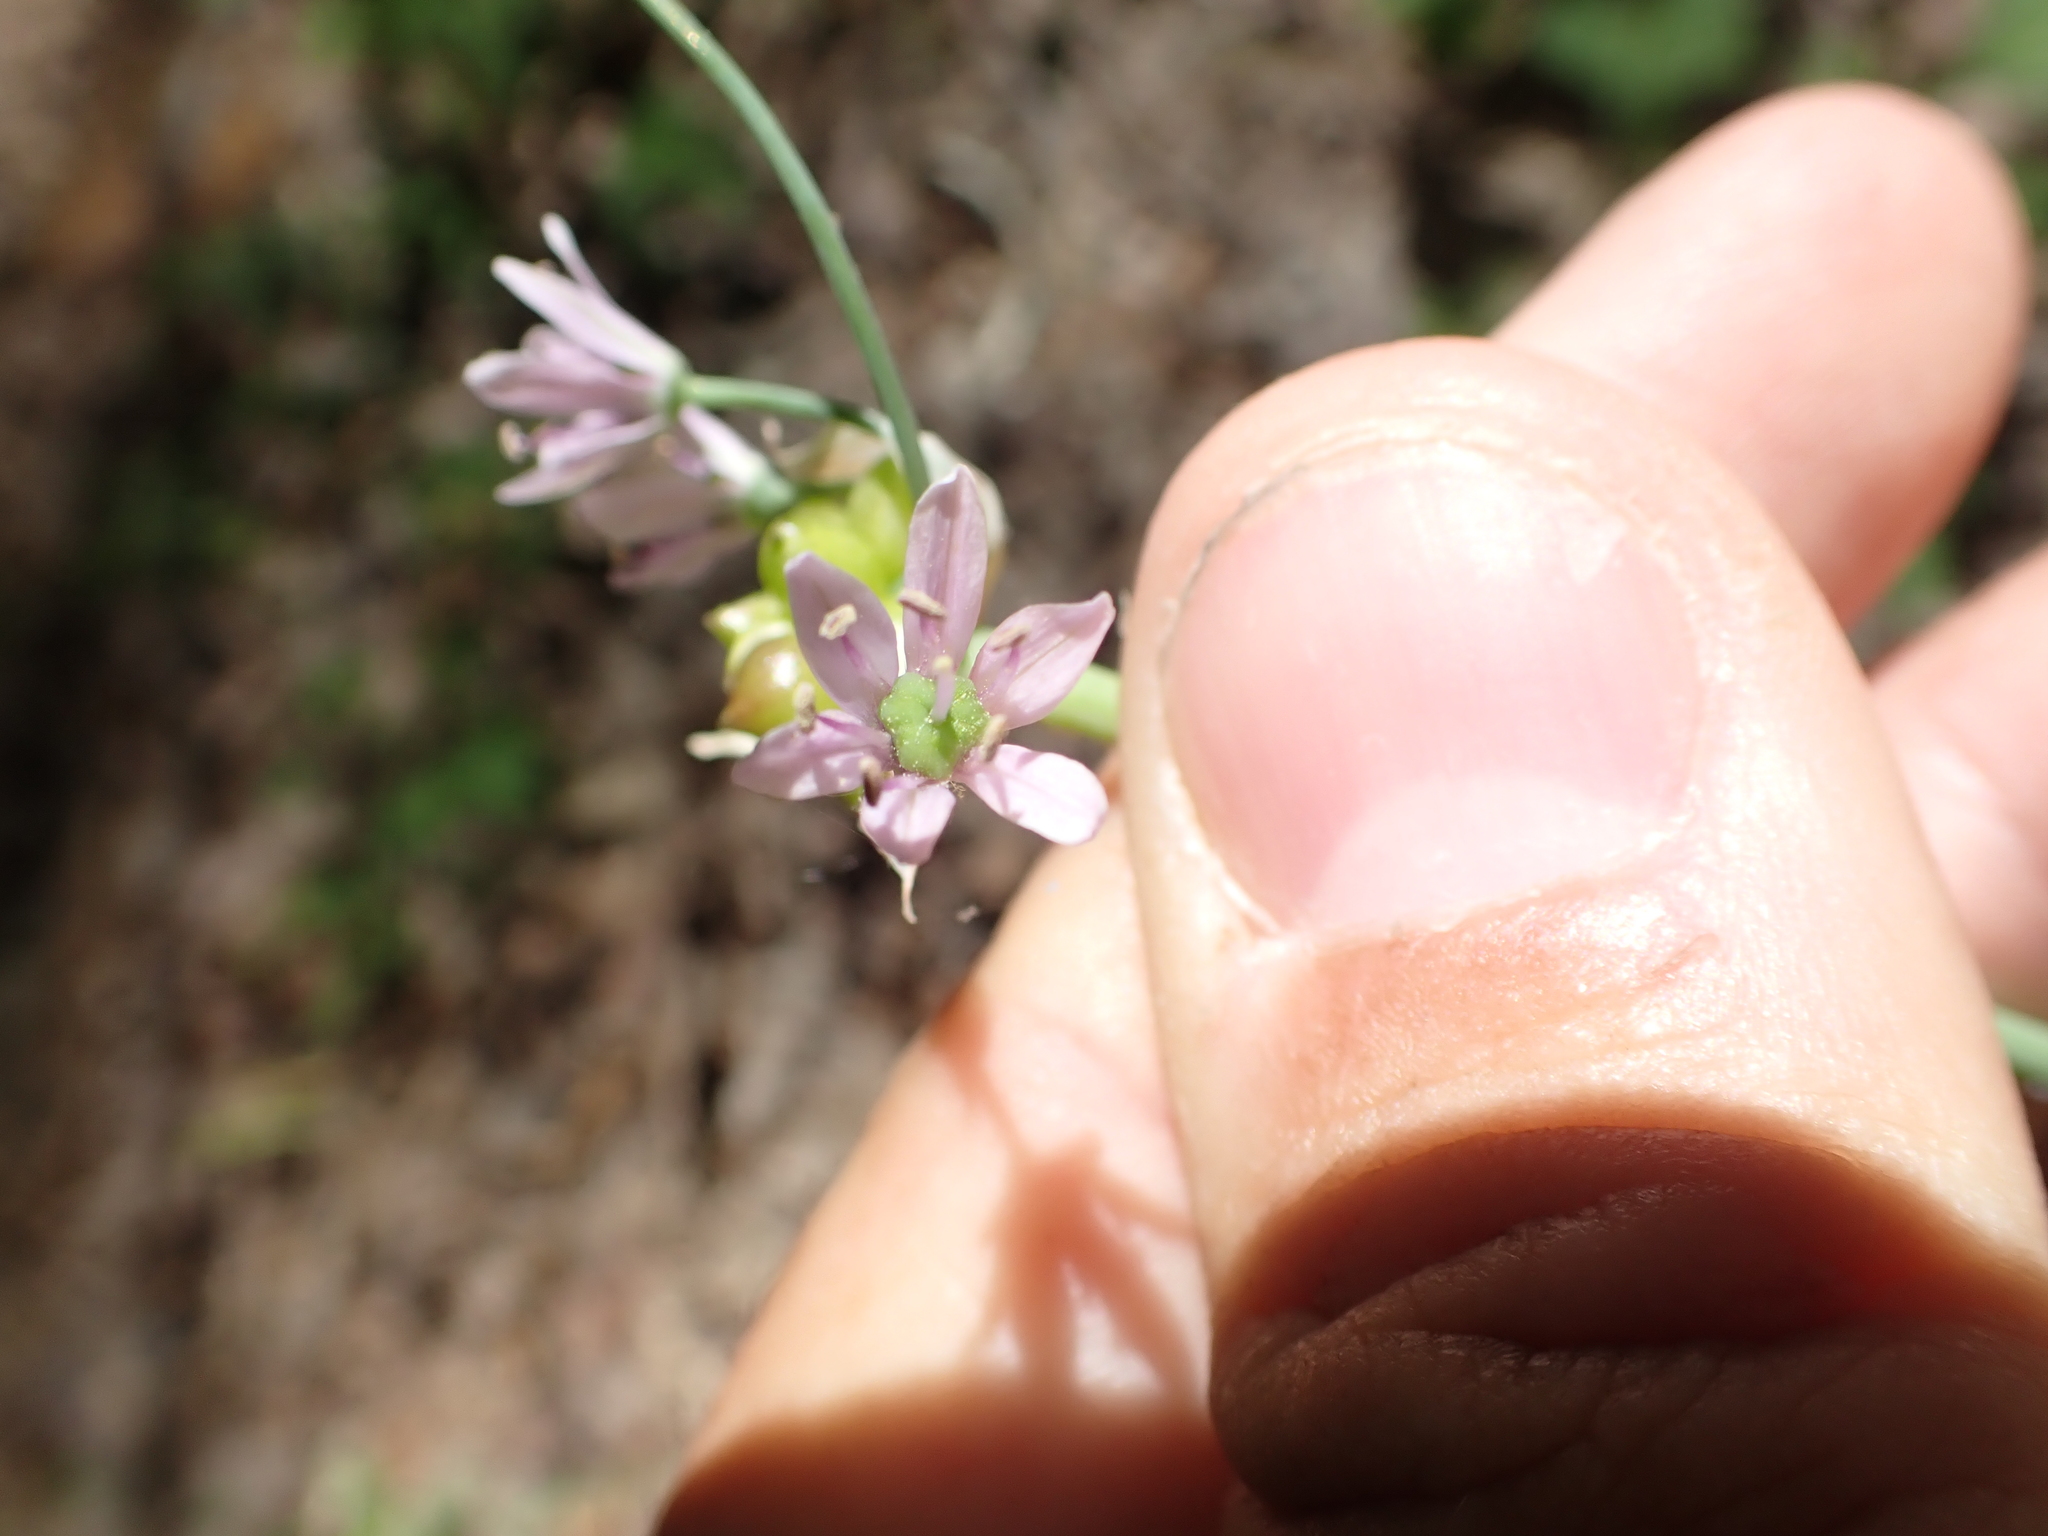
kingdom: Plantae
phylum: Tracheophyta
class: Liliopsida
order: Asparagales
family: Amaryllidaceae
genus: Allium
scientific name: Allium canadense
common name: Meadow garlic
